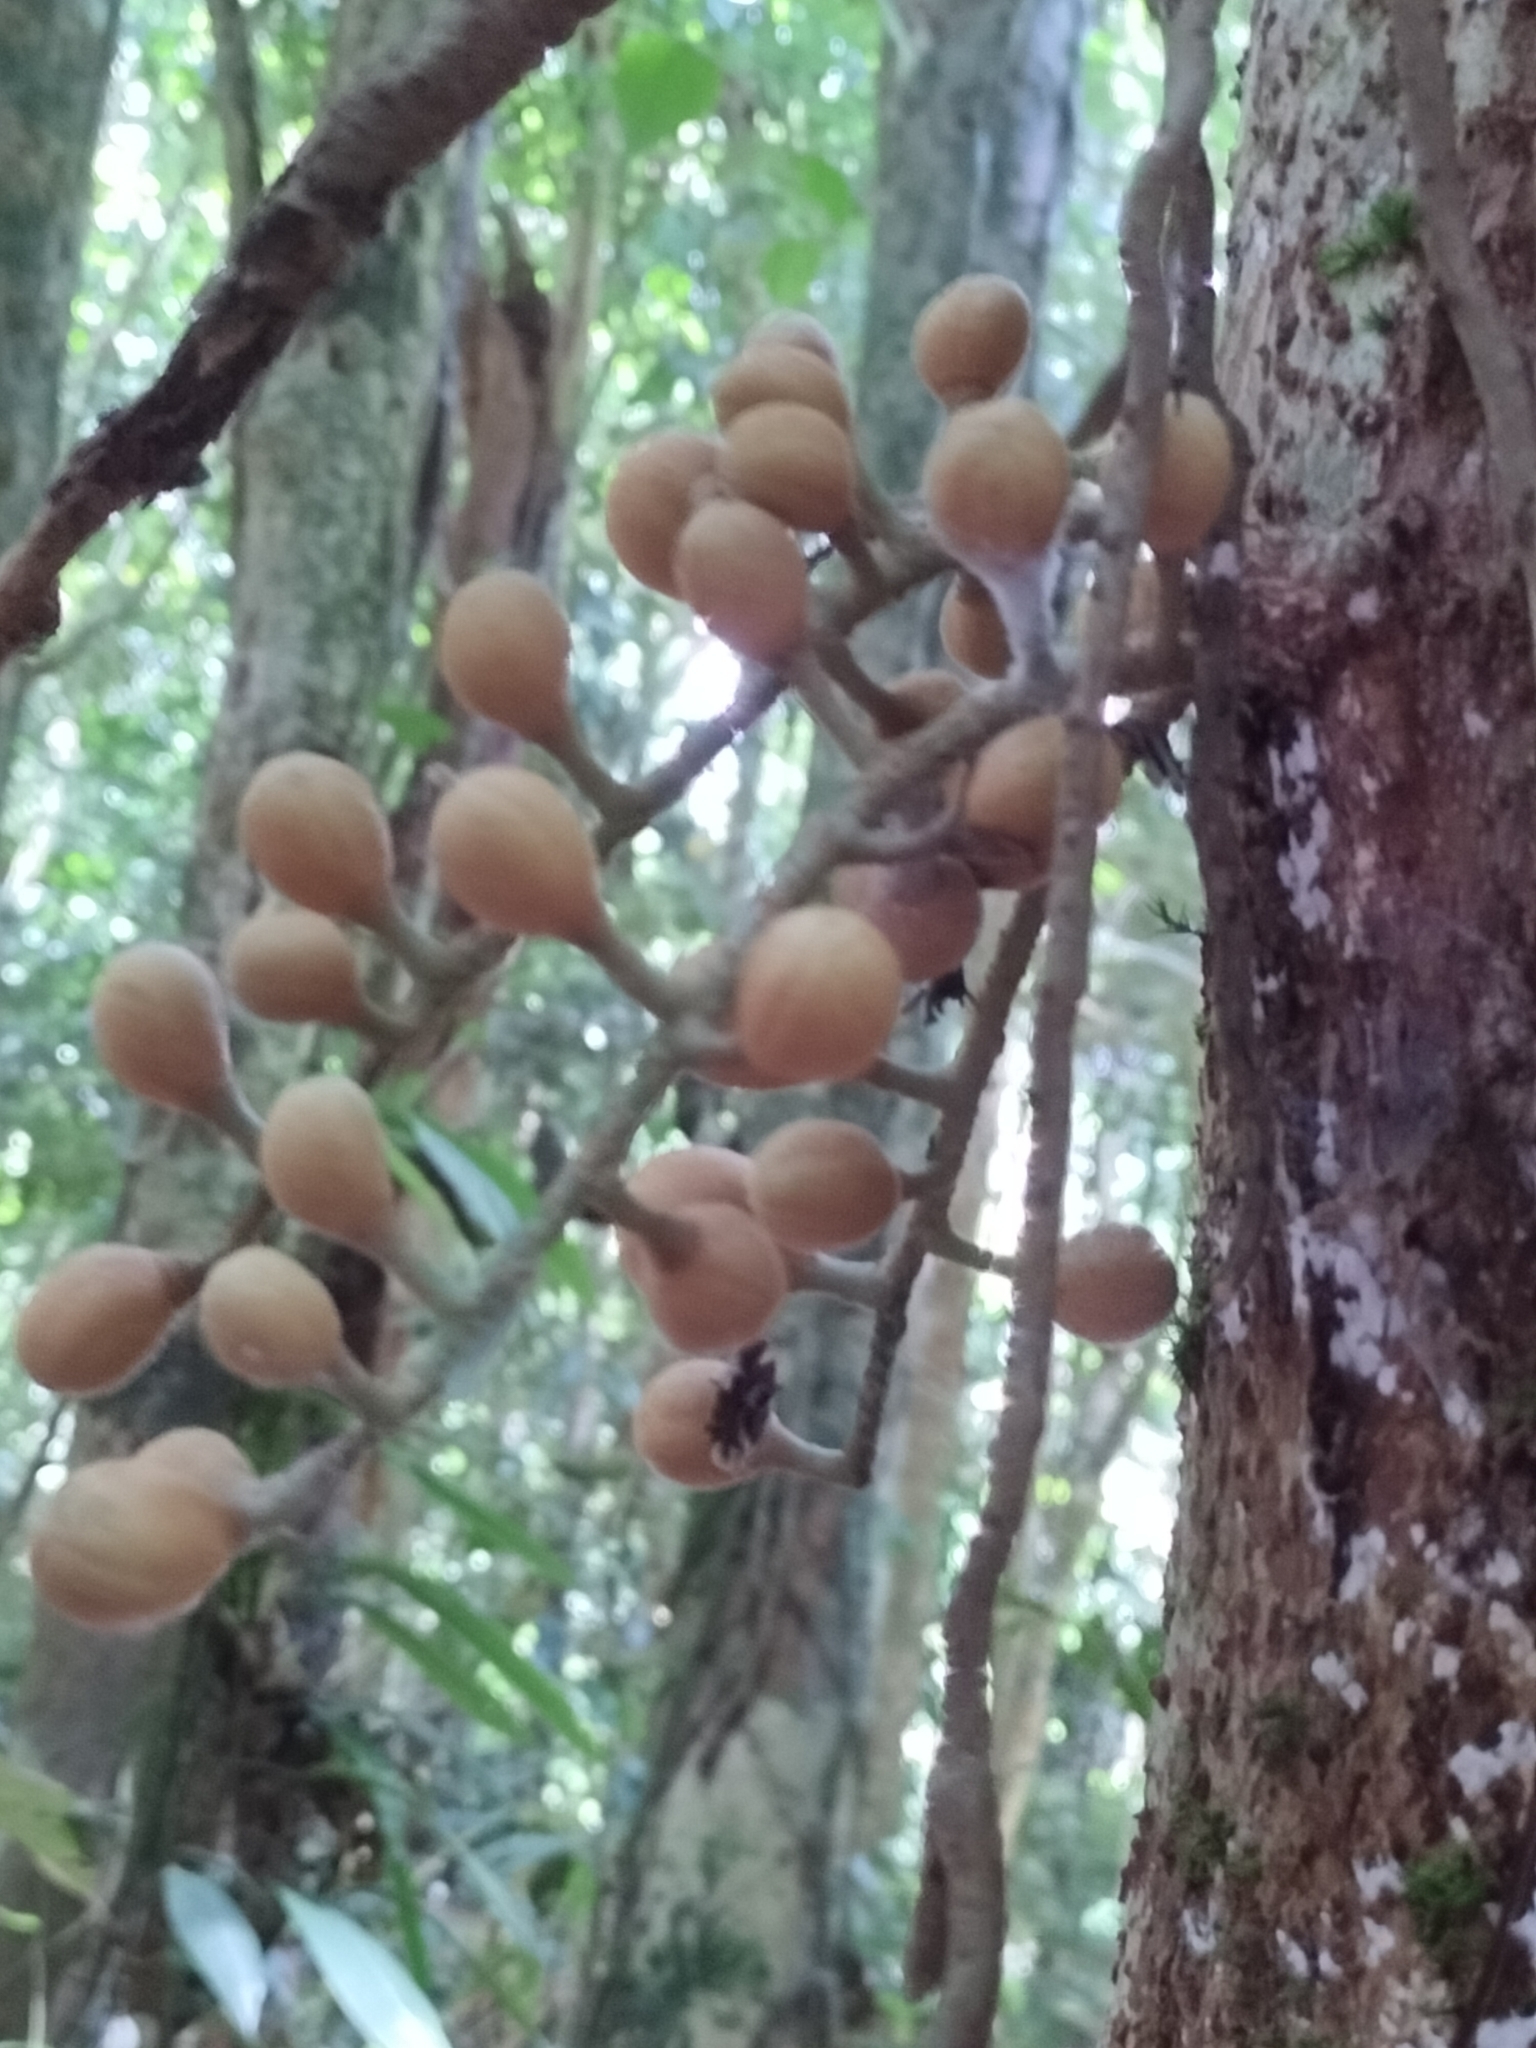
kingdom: Plantae
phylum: Tracheophyta
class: Magnoliopsida
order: Sapindales
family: Meliaceae
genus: Epicharis
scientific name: Epicharis parasitica
